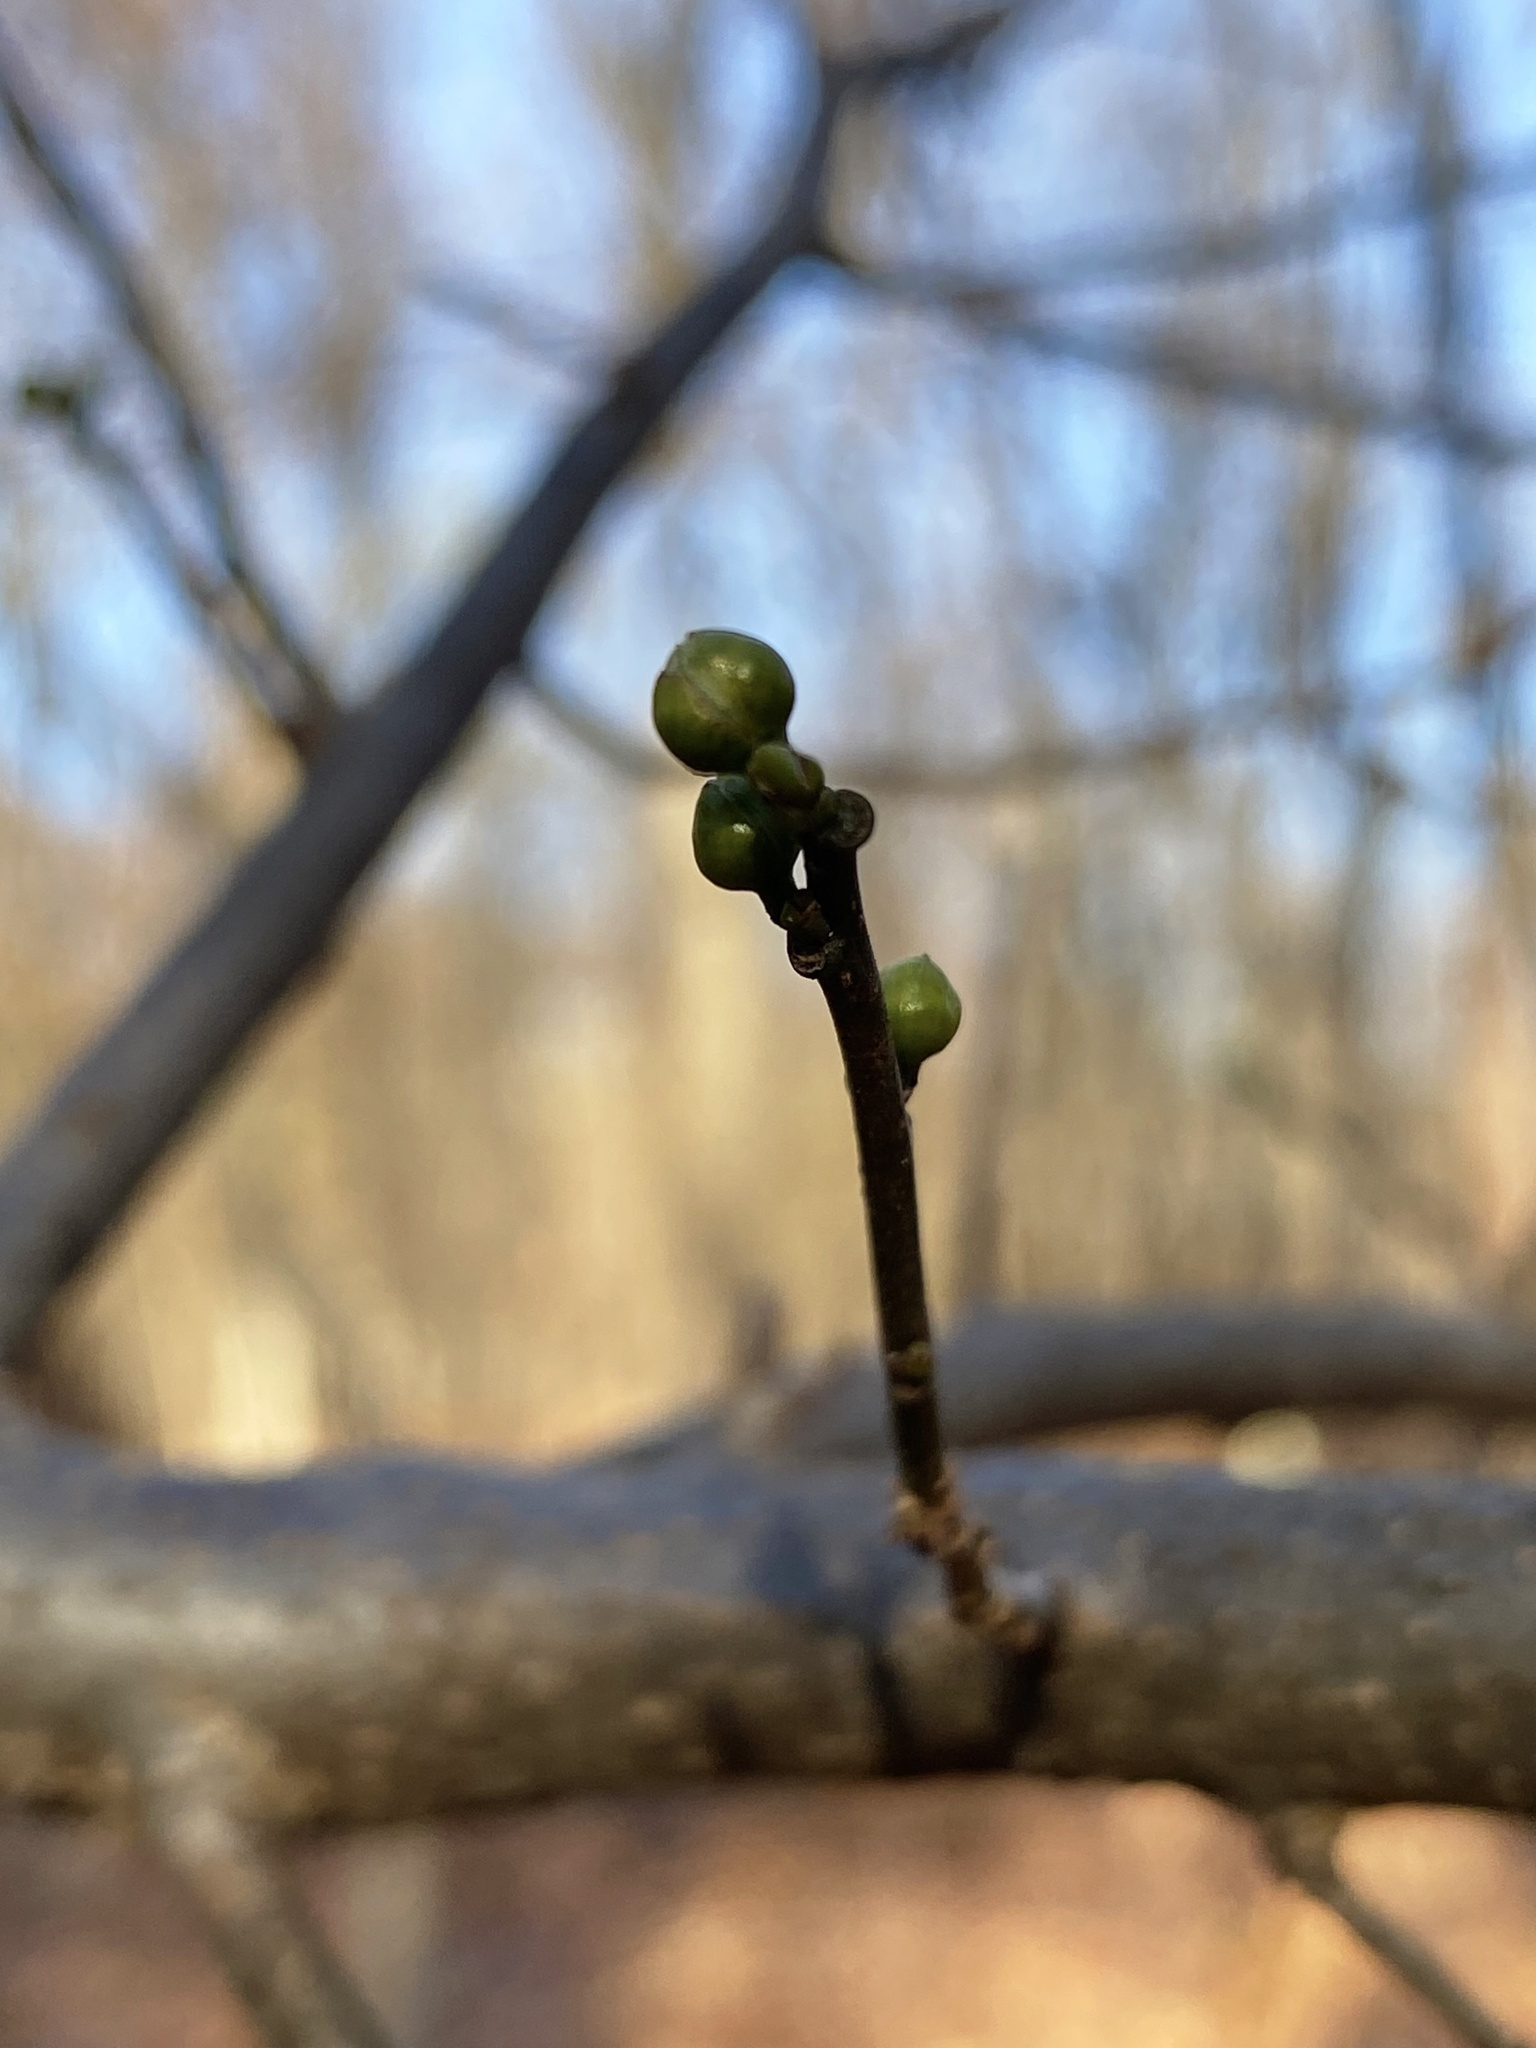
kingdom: Plantae
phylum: Tracheophyta
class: Magnoliopsida
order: Laurales
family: Lauraceae
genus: Lindera
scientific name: Lindera benzoin
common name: Spicebush
